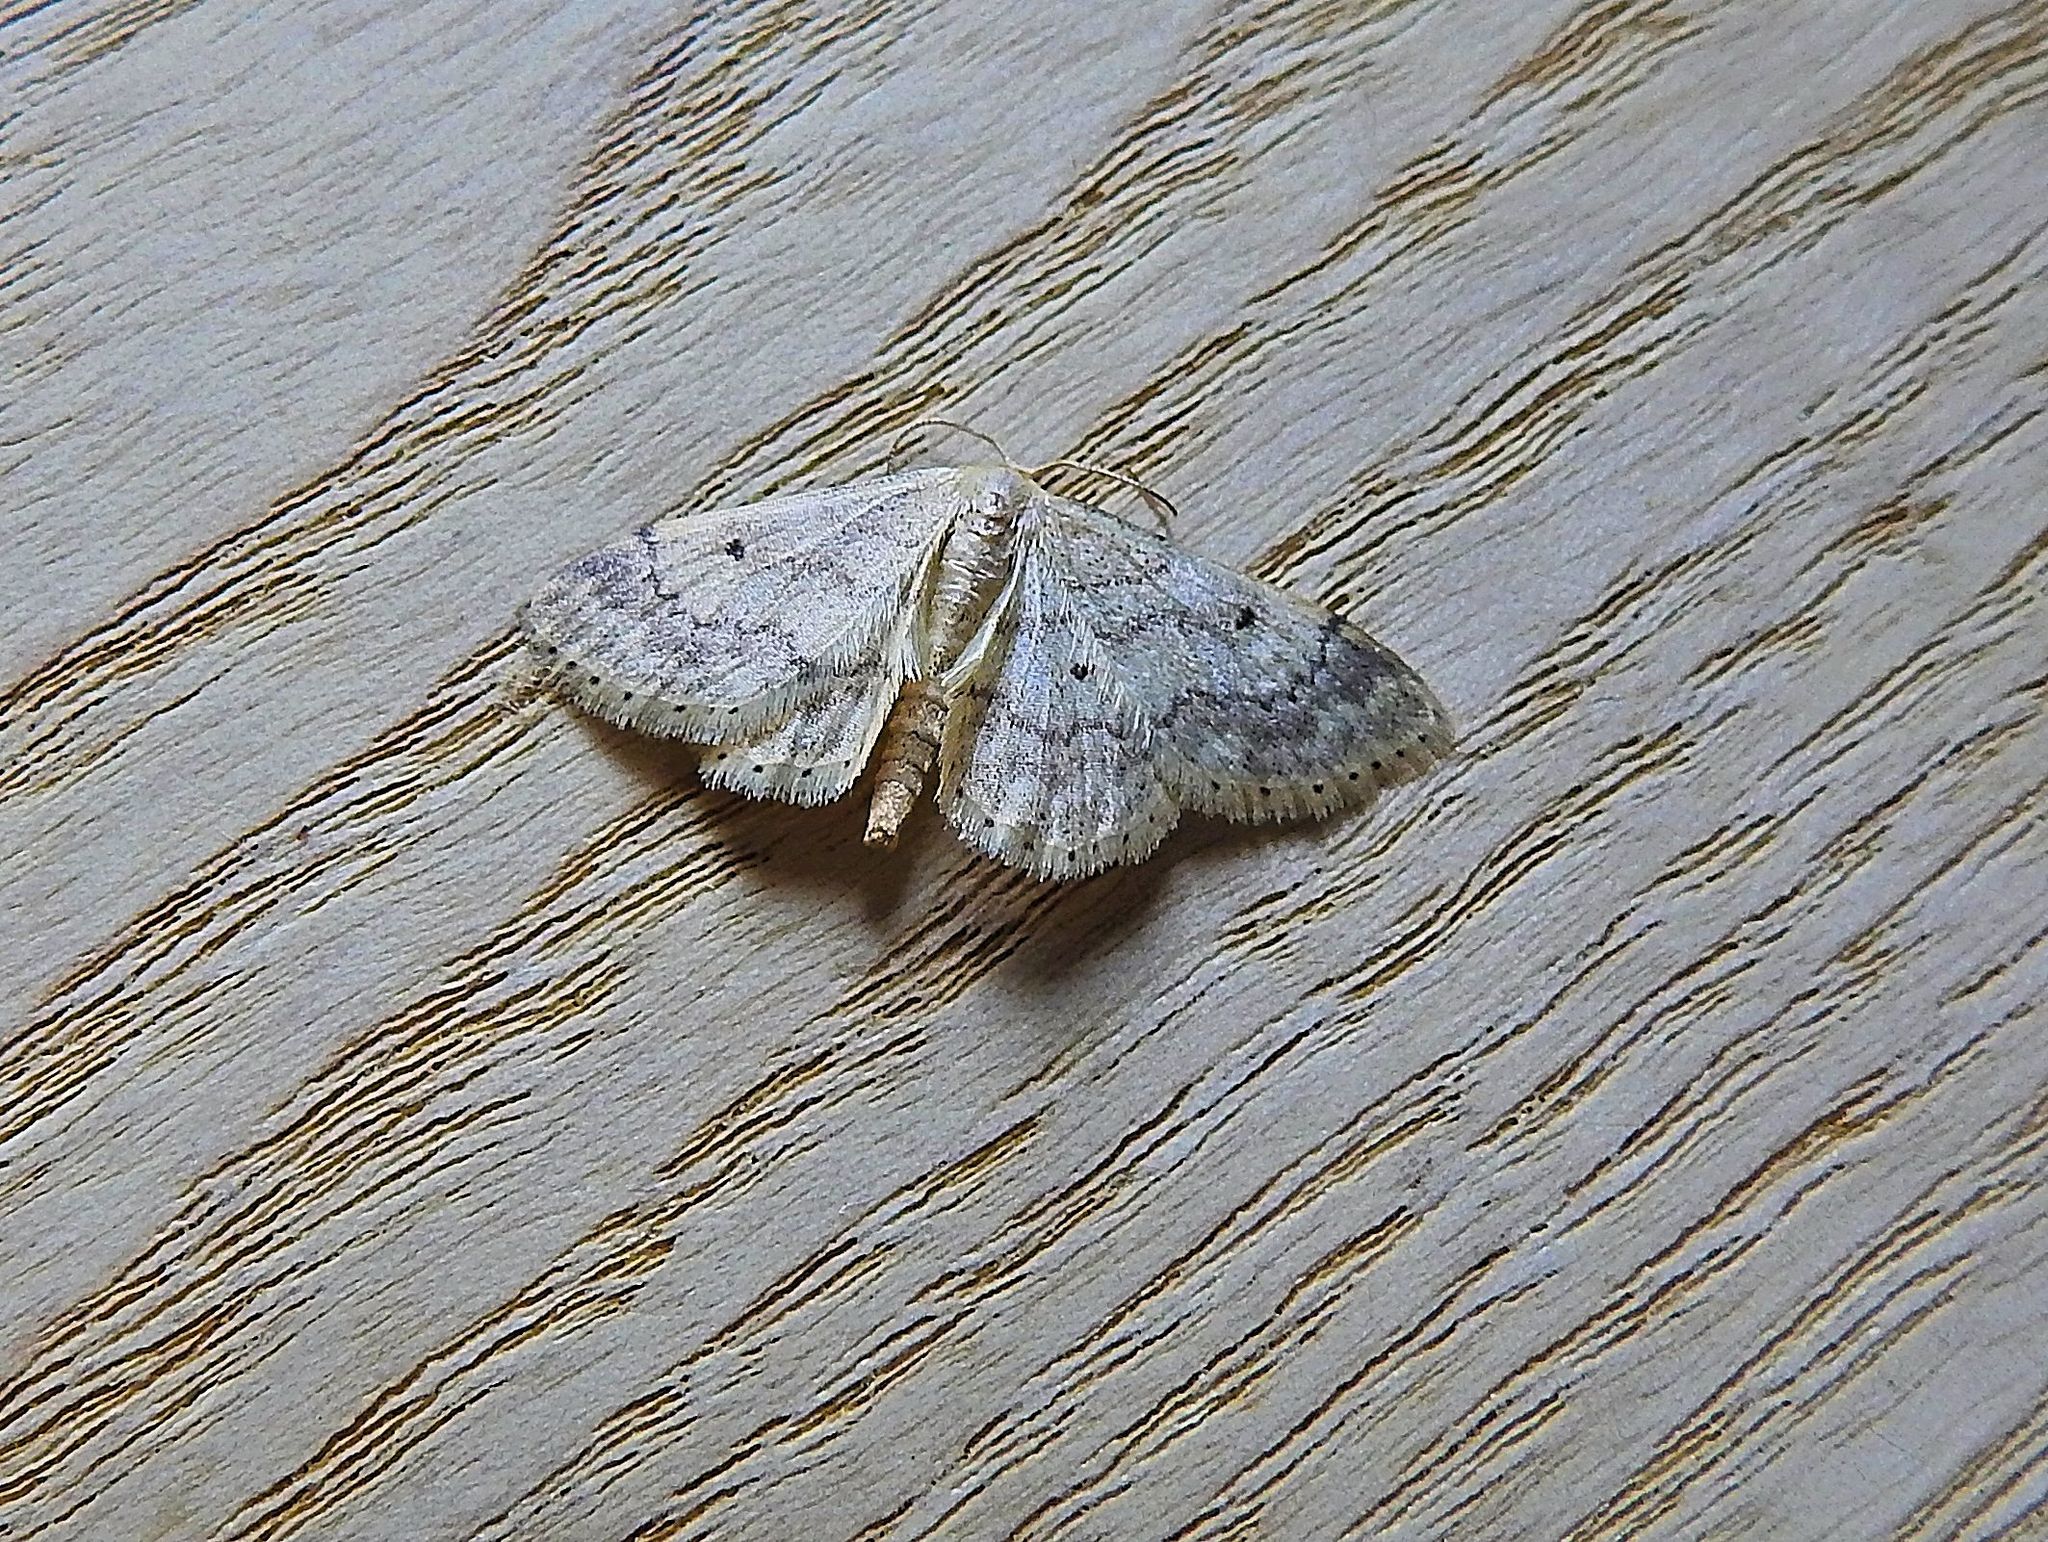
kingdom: Animalia
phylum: Arthropoda
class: Insecta
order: Lepidoptera
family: Geometridae
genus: Idaea
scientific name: Idaea biselata
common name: Small fan-footed wave
